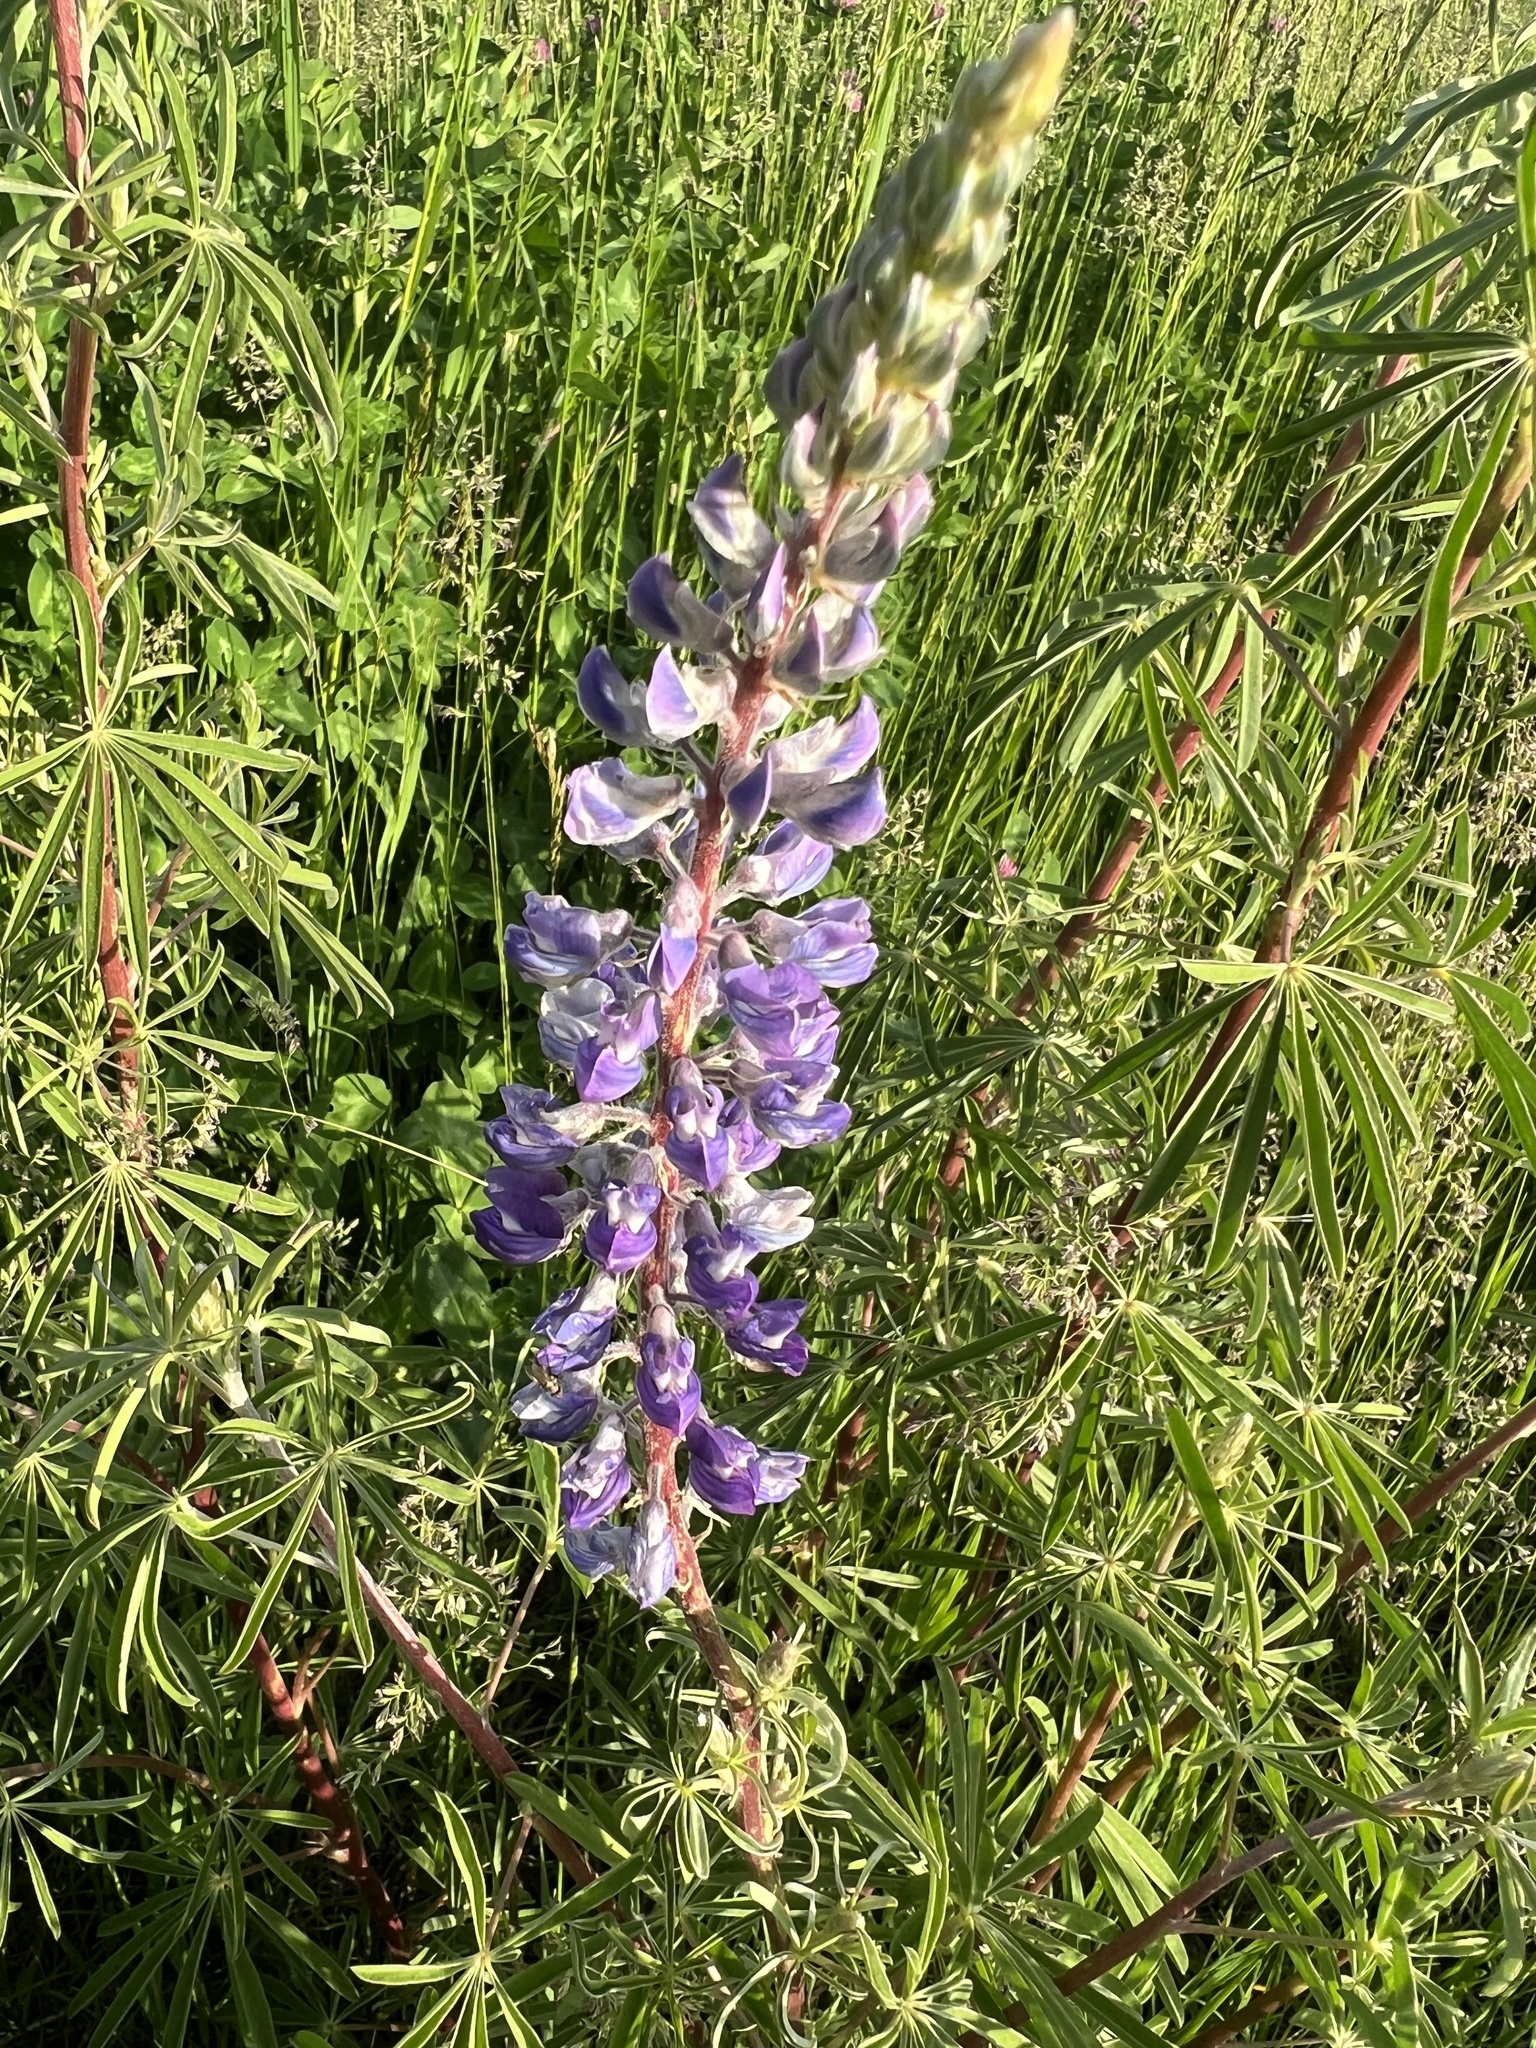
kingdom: Plantae
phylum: Tracheophyta
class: Magnoliopsida
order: Fabales
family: Fabaceae
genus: Lupinus
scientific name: Lupinus argenteus
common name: Silvery lupine
